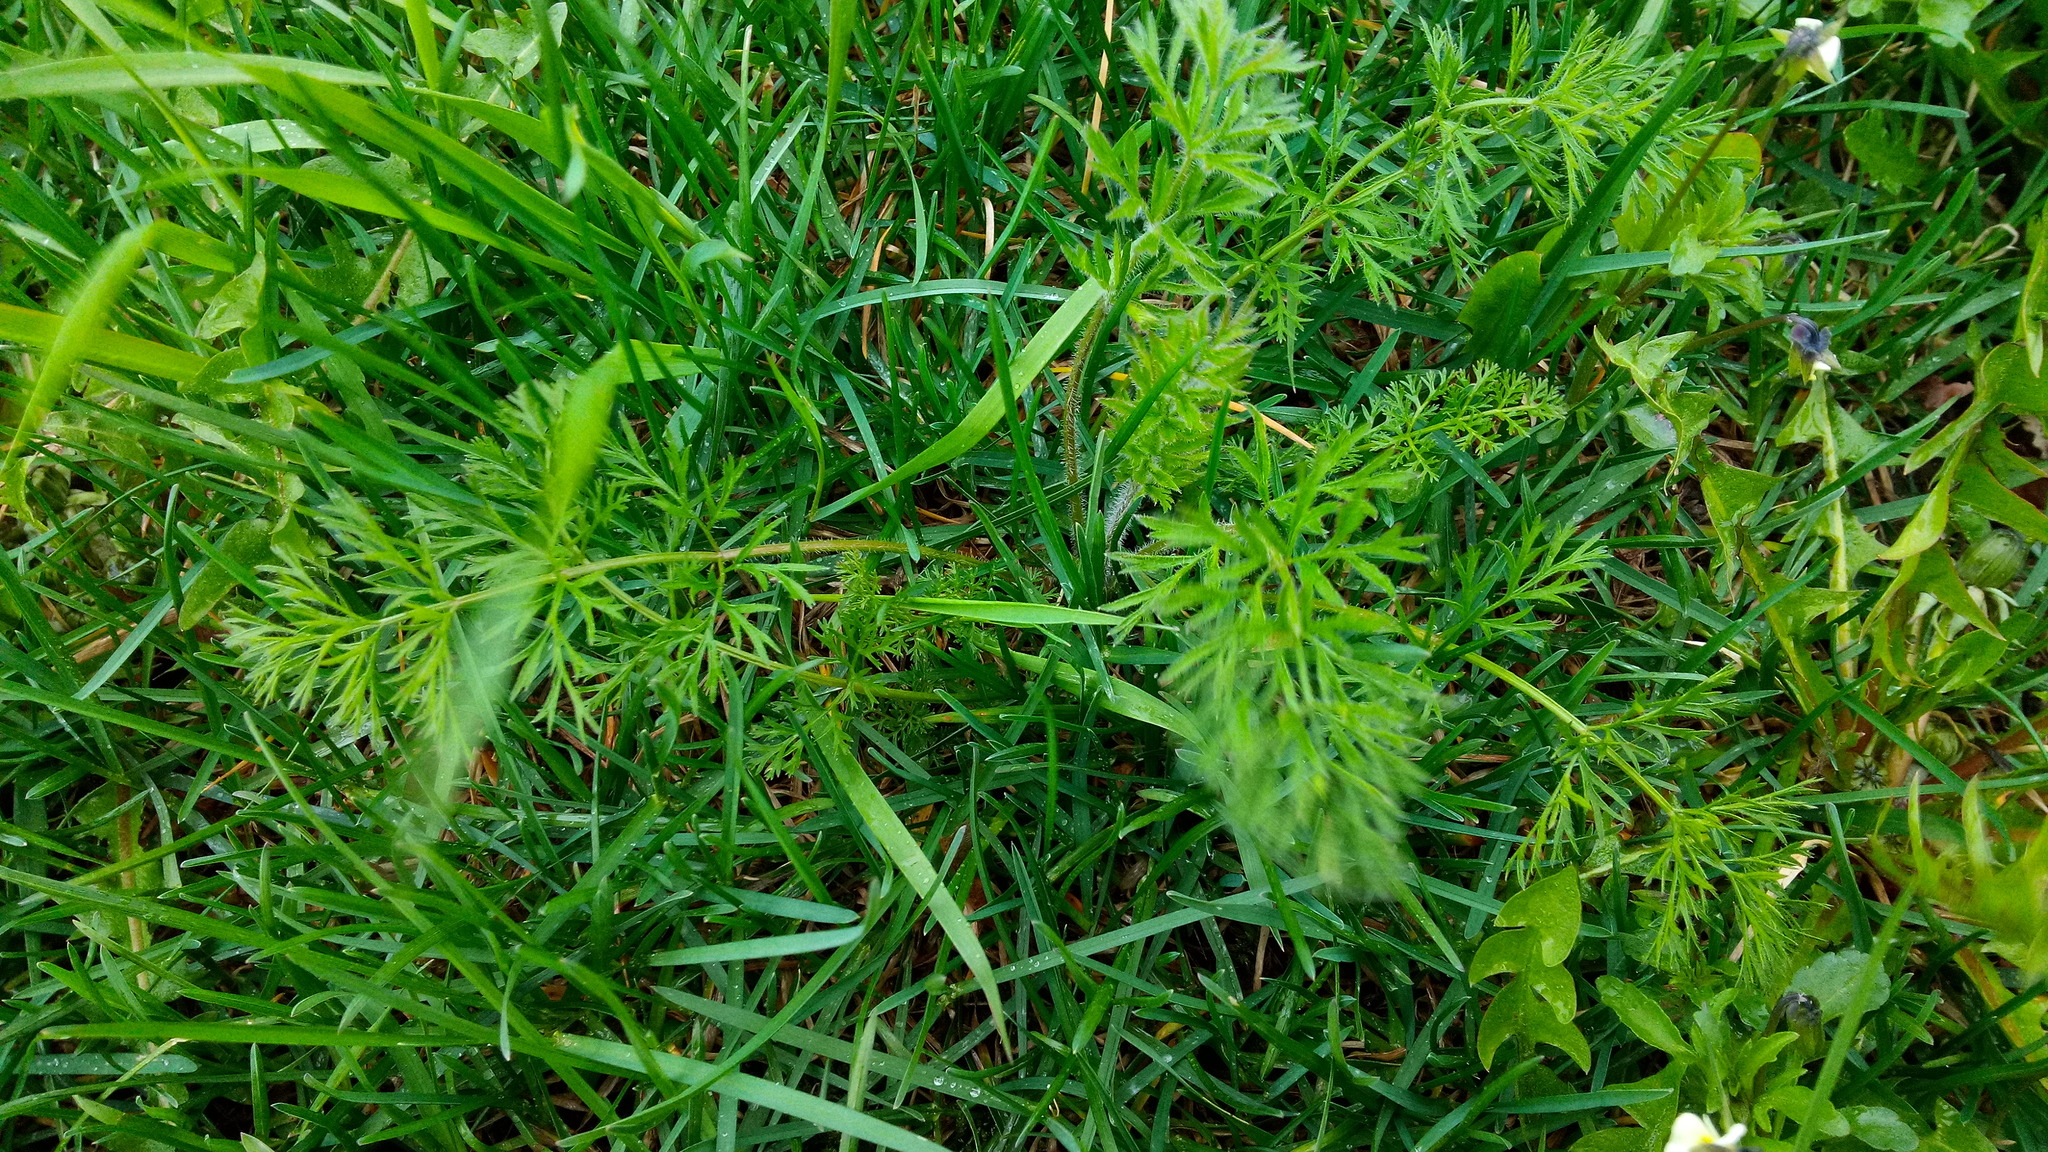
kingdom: Plantae
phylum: Tracheophyta
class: Magnoliopsida
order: Apiales
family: Apiaceae
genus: Carum
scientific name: Carum carvi
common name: Caraway
